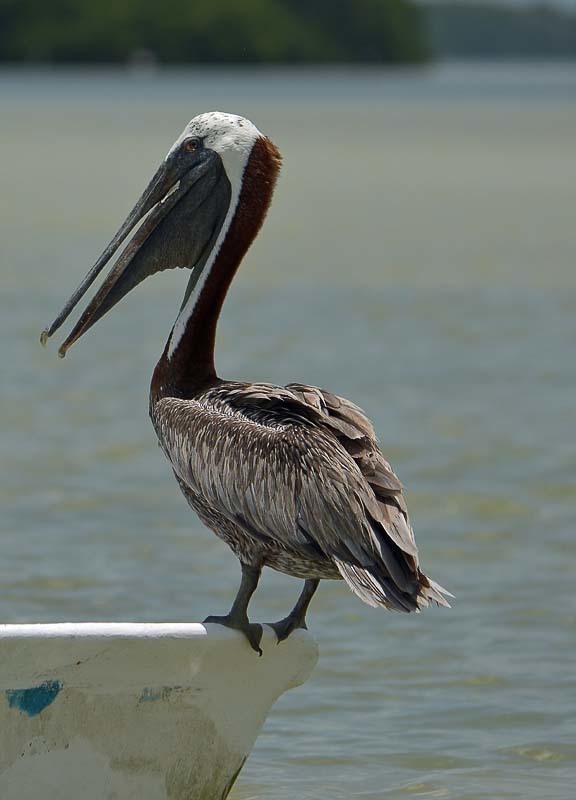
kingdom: Animalia
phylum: Chordata
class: Aves
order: Pelecaniformes
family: Pelecanidae
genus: Pelecanus
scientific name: Pelecanus occidentalis
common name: Brown pelican
